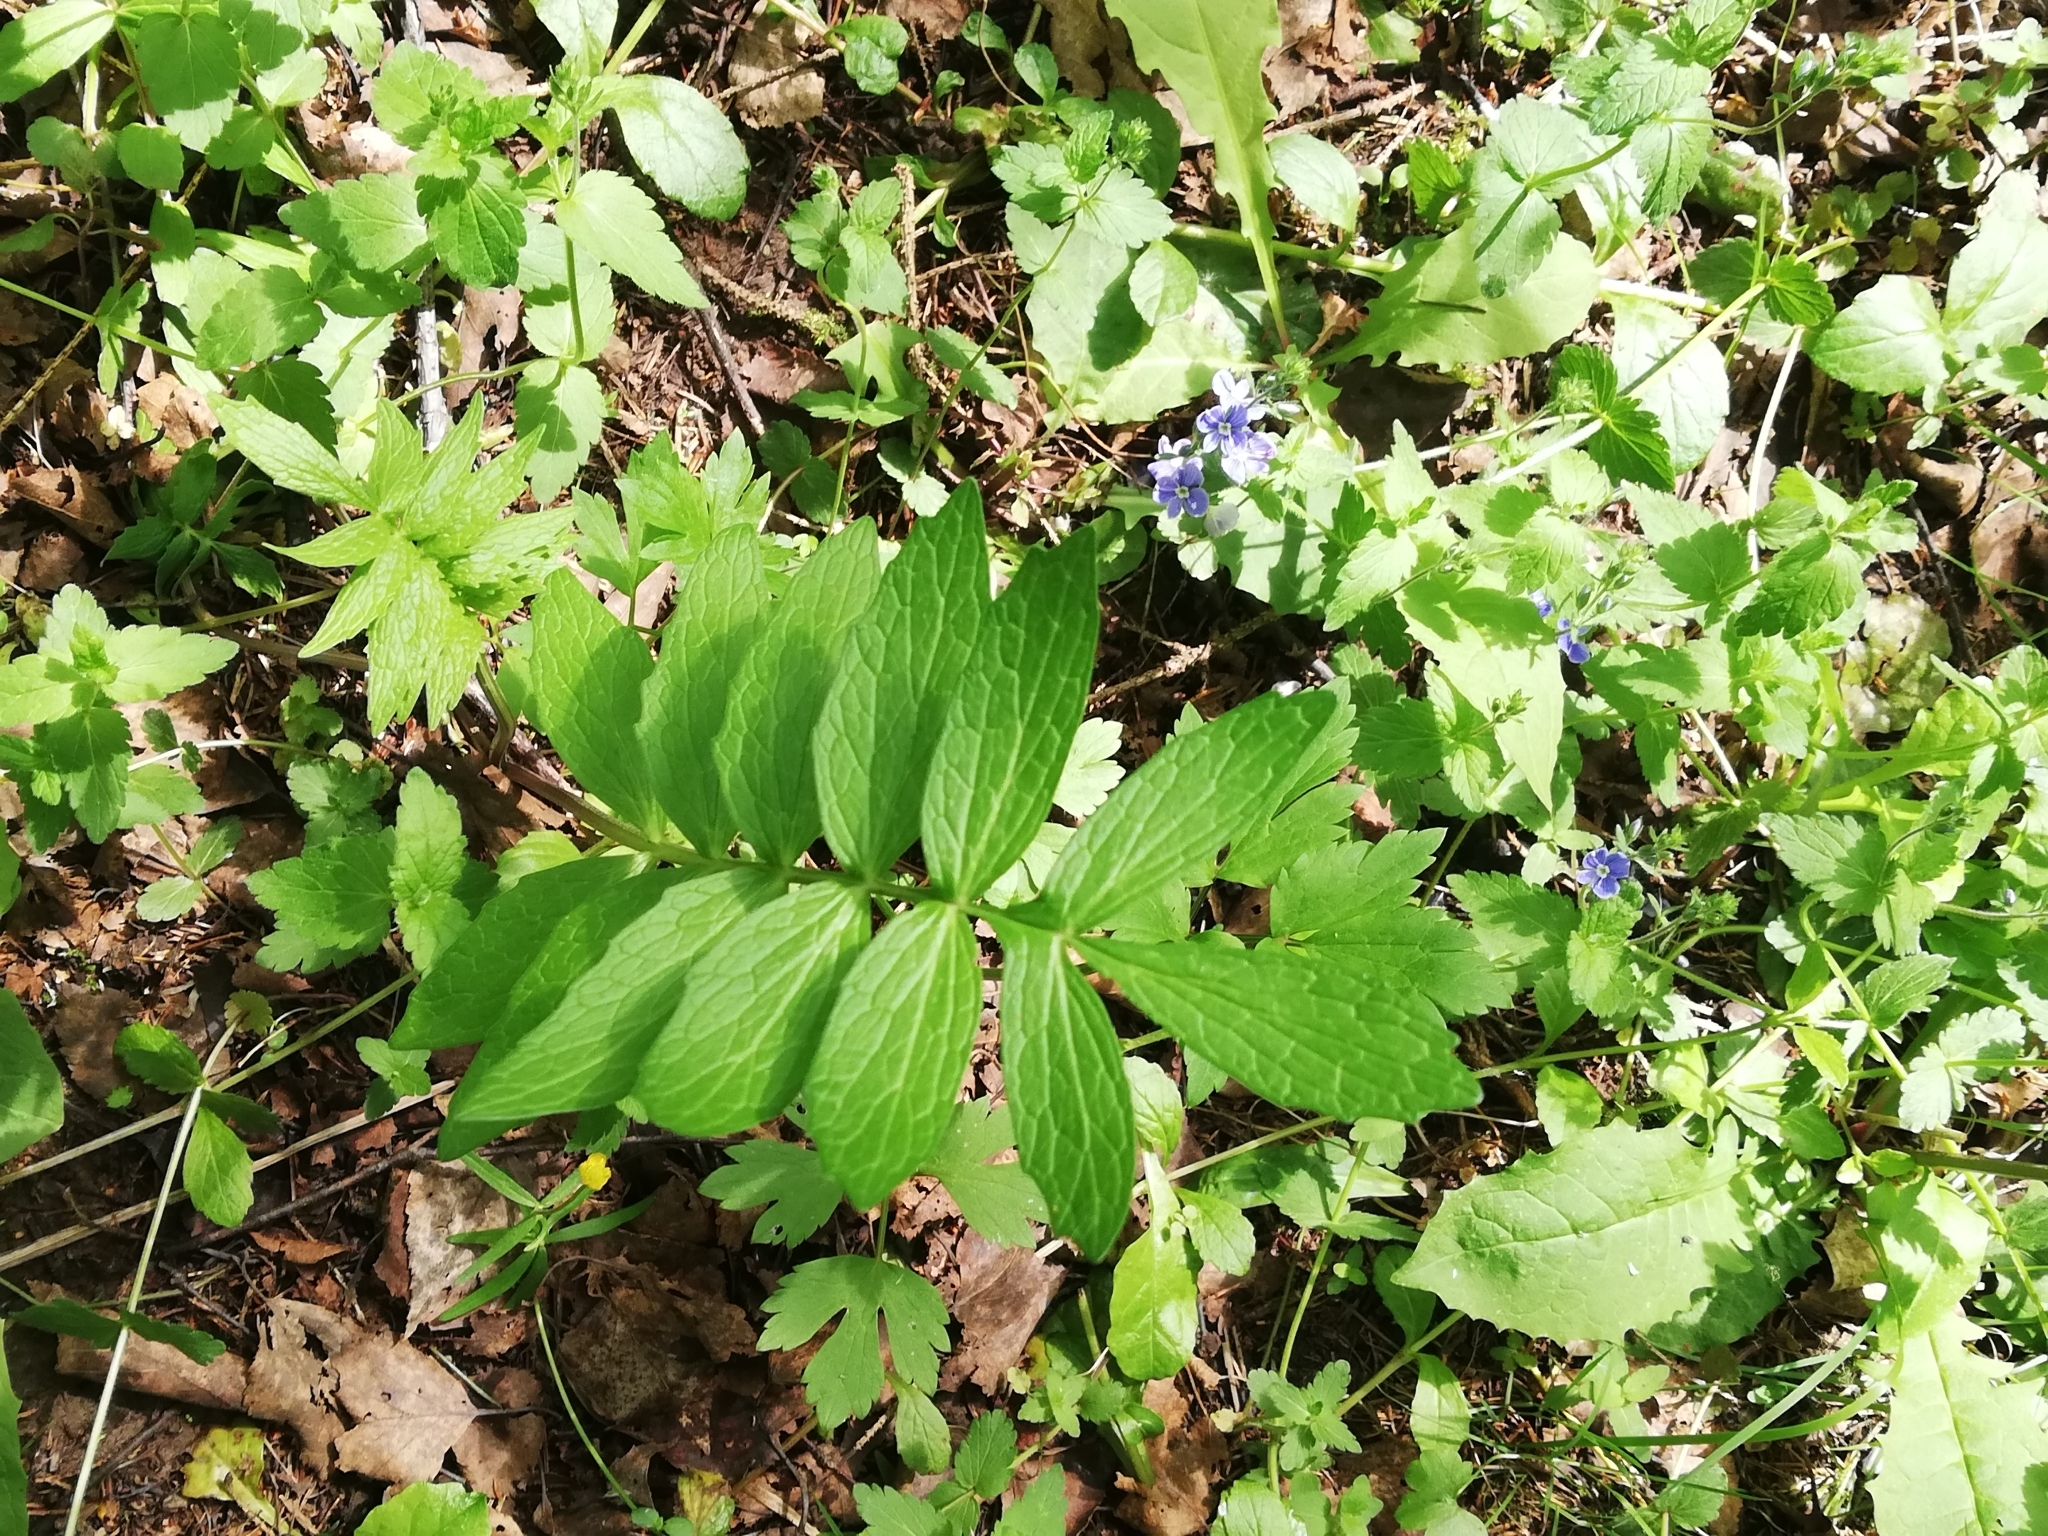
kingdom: Plantae
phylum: Tracheophyta
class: Magnoliopsida
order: Dipsacales
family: Caprifoliaceae
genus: Valeriana
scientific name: Valeriana officinalis
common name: Common valerian
